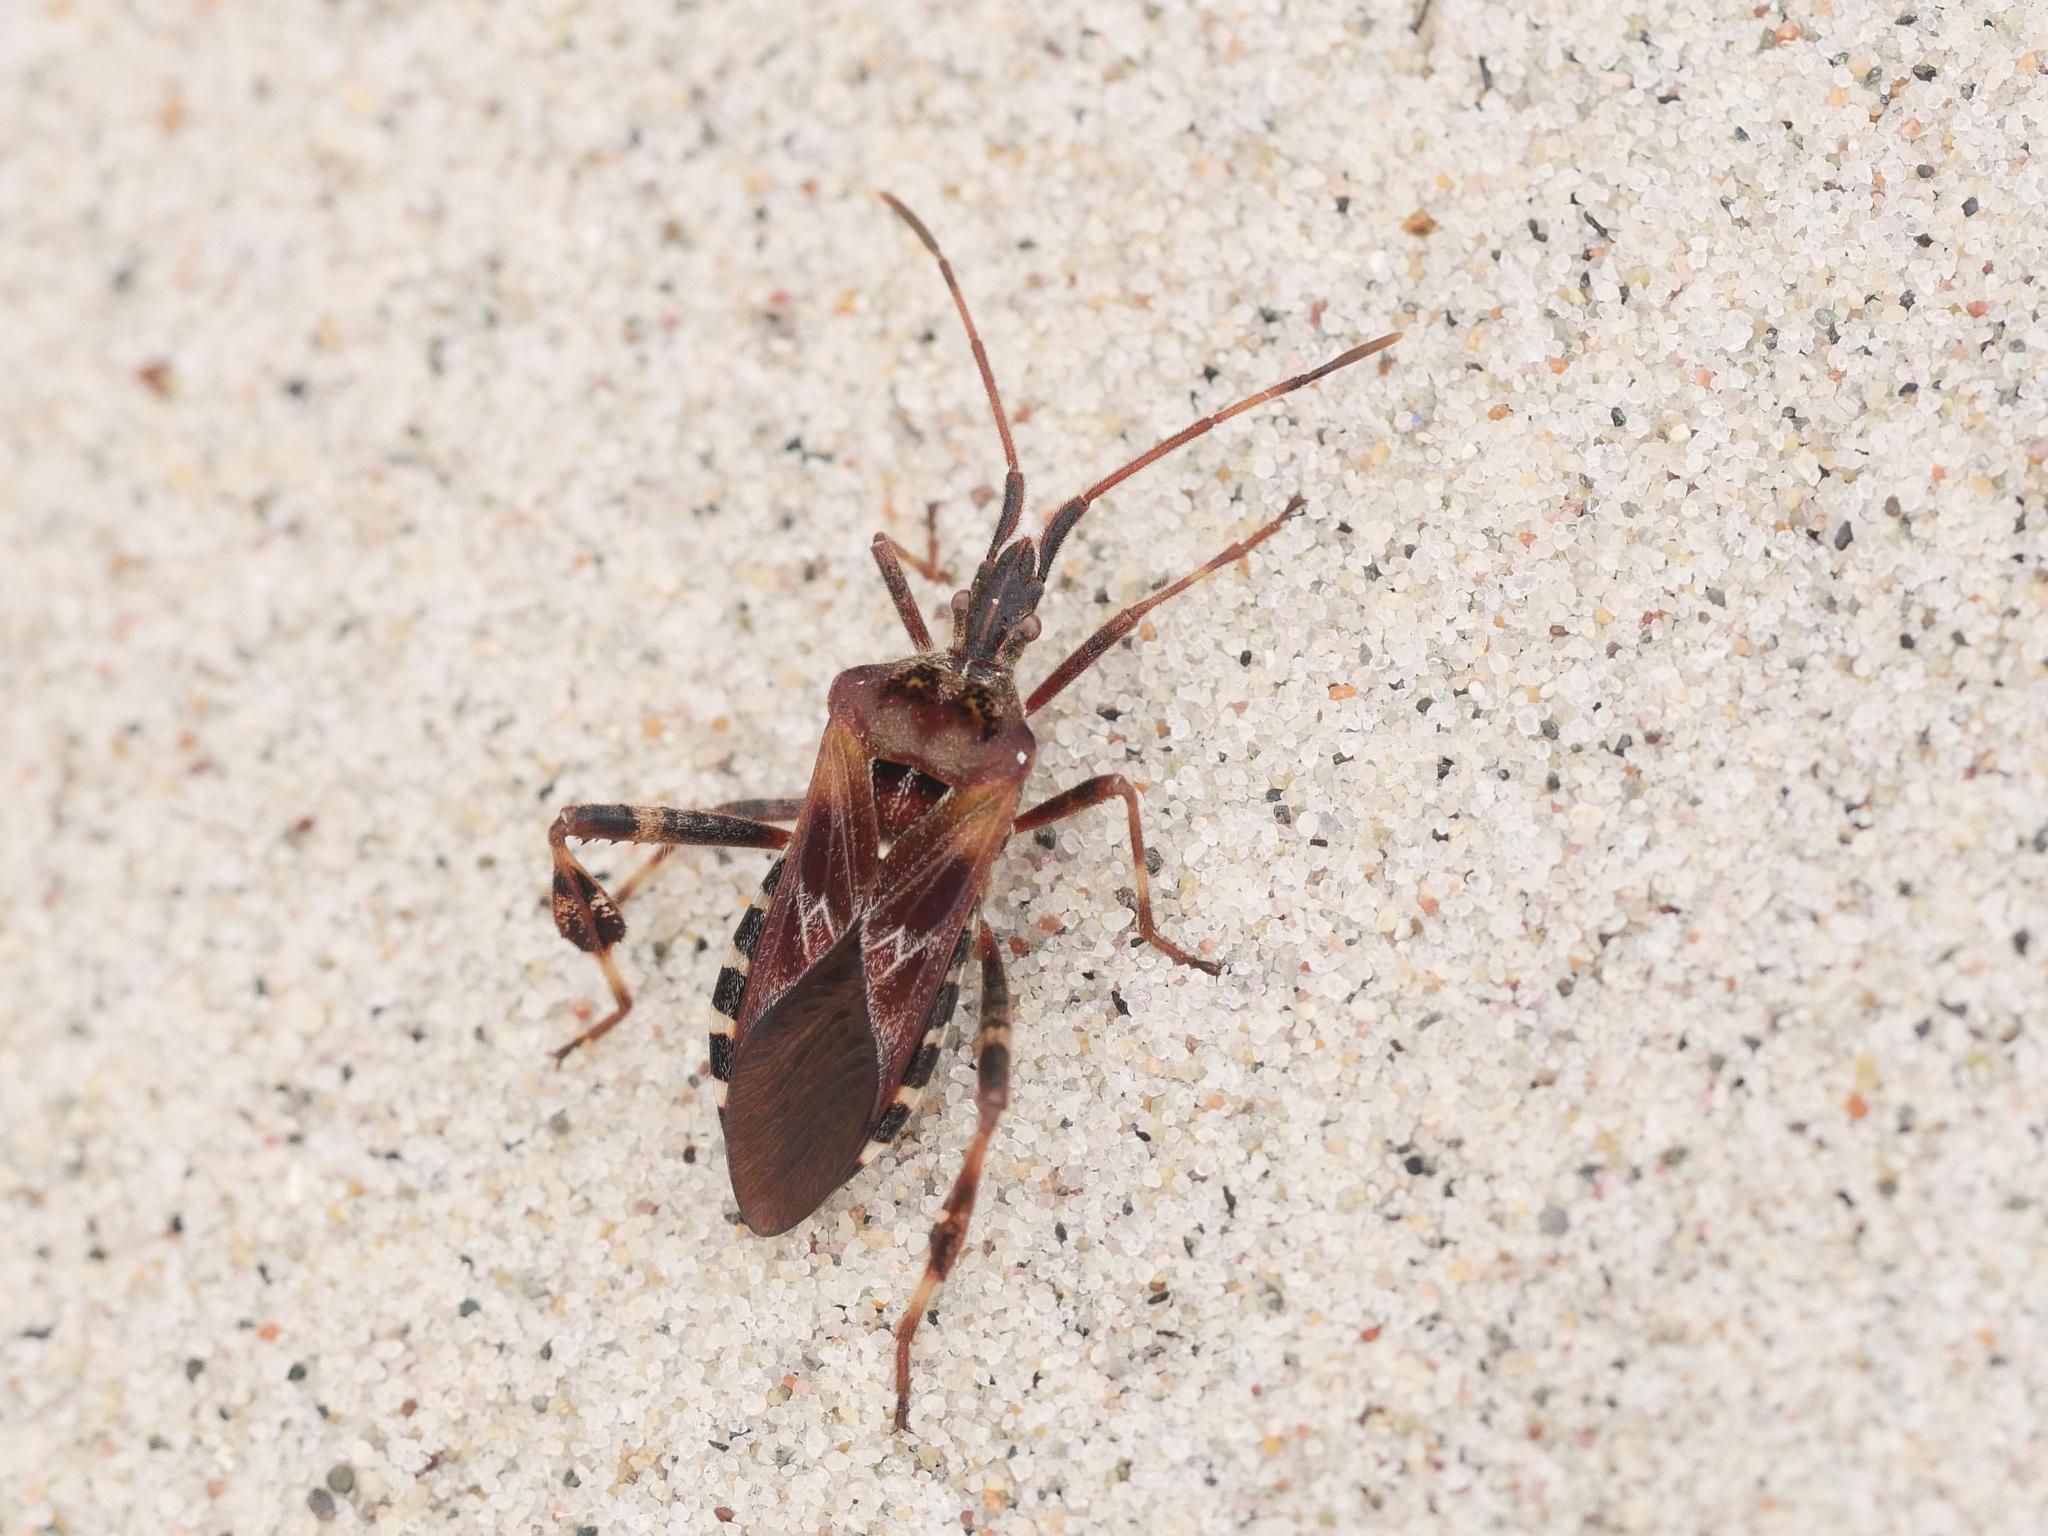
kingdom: Animalia
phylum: Arthropoda
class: Insecta
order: Hemiptera
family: Coreidae
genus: Leptoglossus
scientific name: Leptoglossus occidentalis
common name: Western conifer-seed bug
